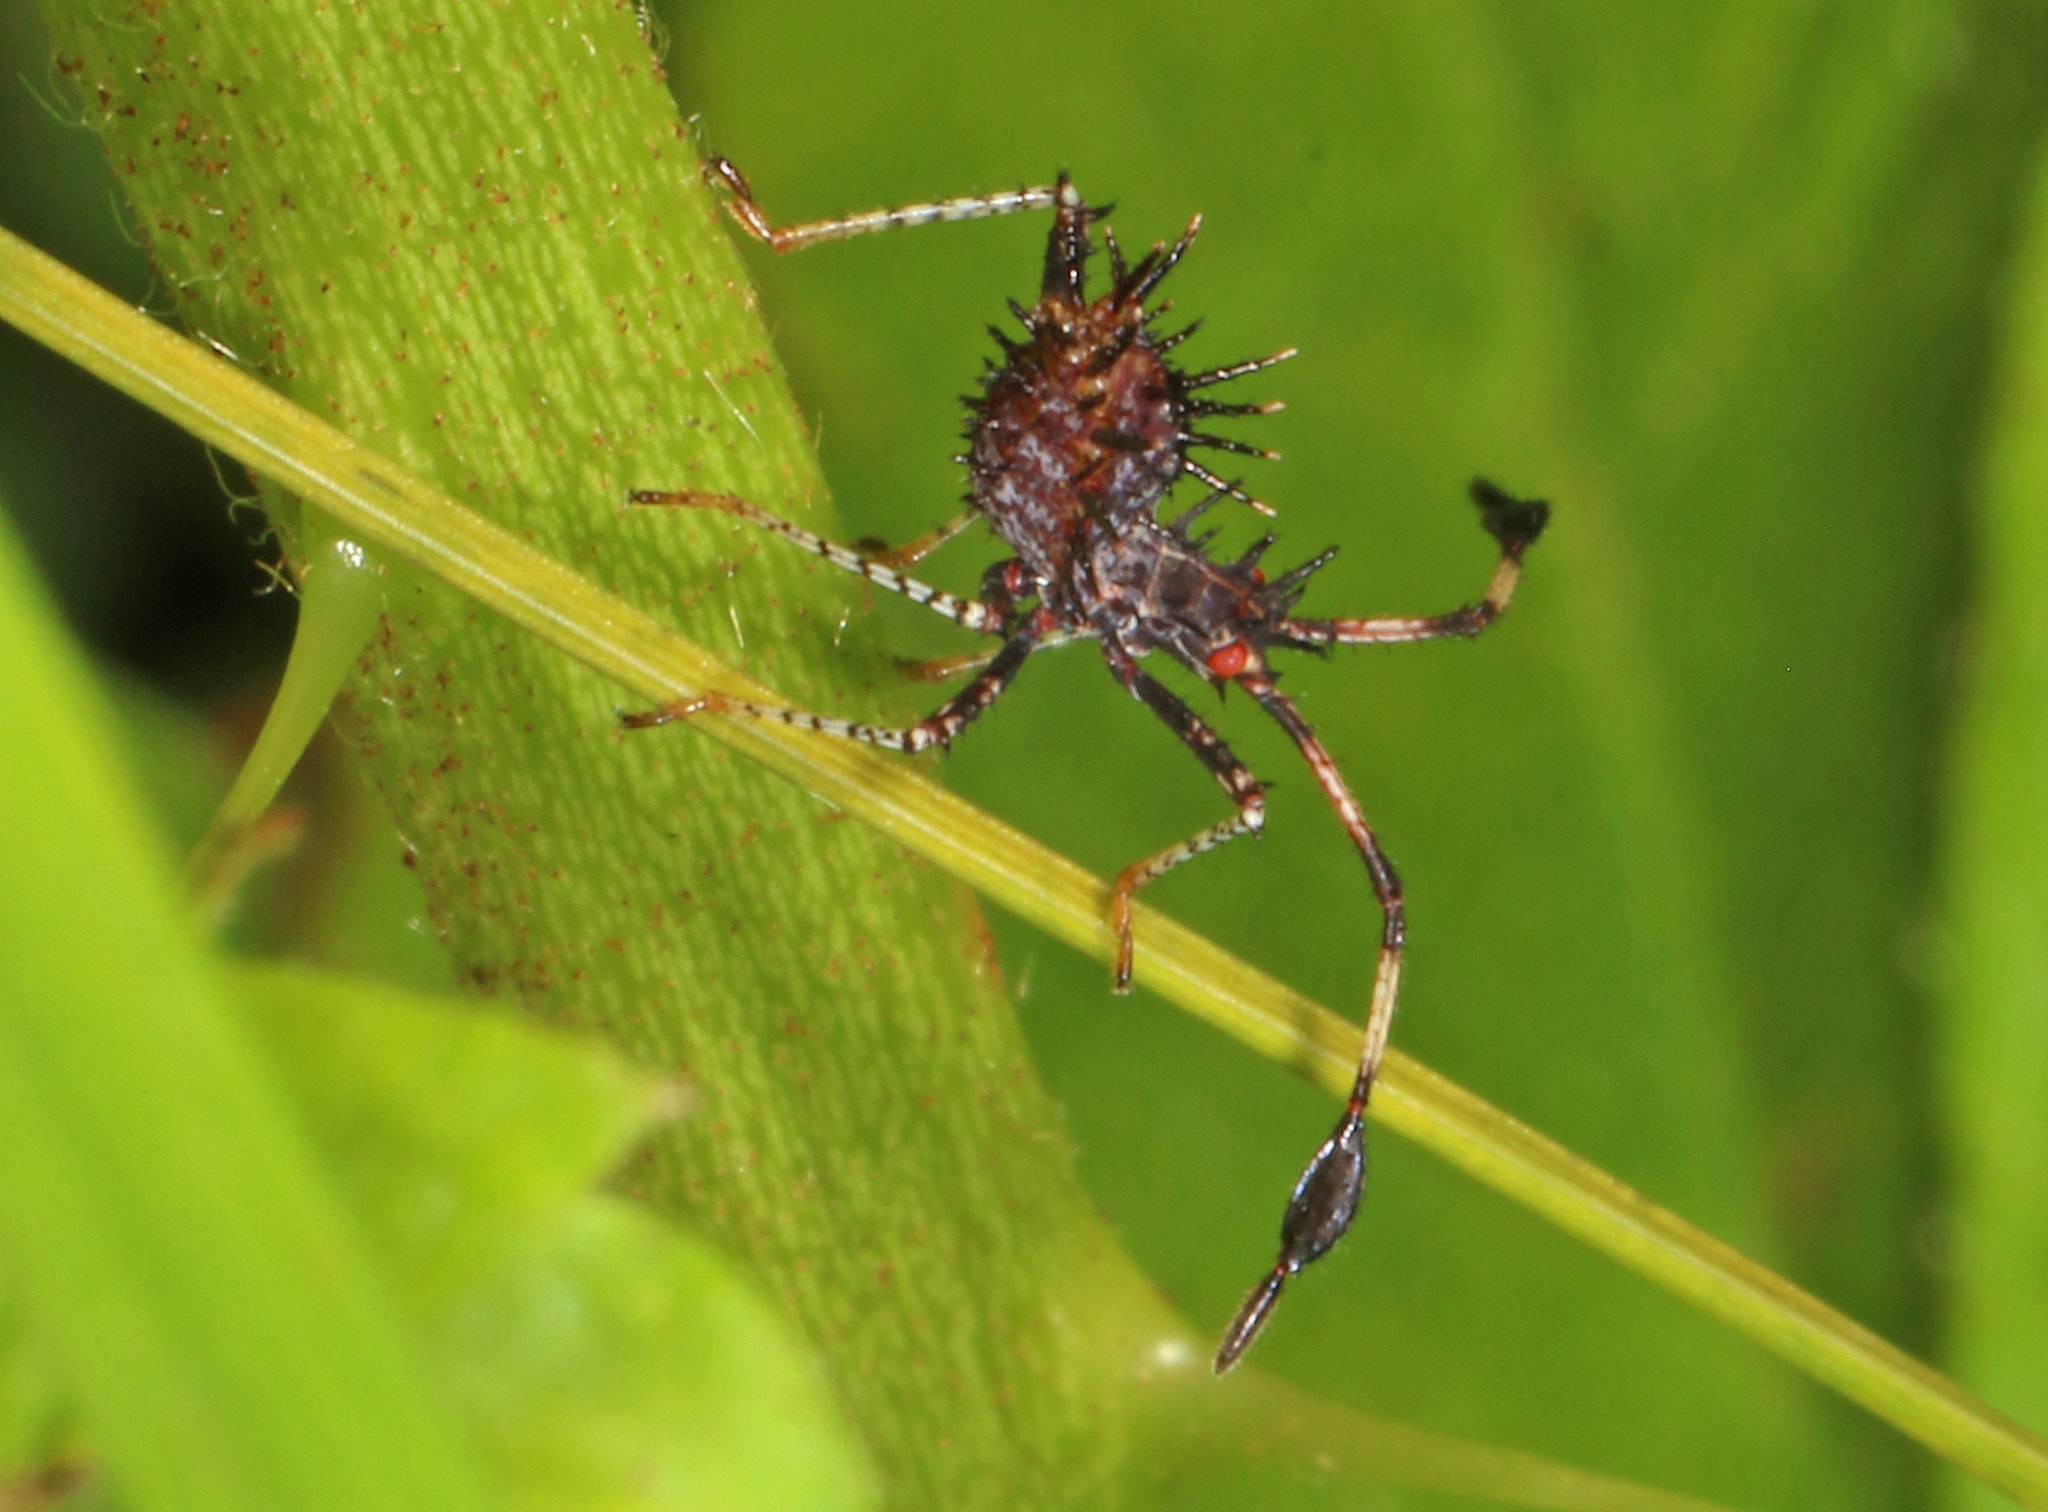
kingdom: Animalia
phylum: Arthropoda
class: Insecta
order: Hemiptera
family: Coreidae
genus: Euthochtha
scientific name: Euthochtha galeator
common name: Helmeted squash bug
